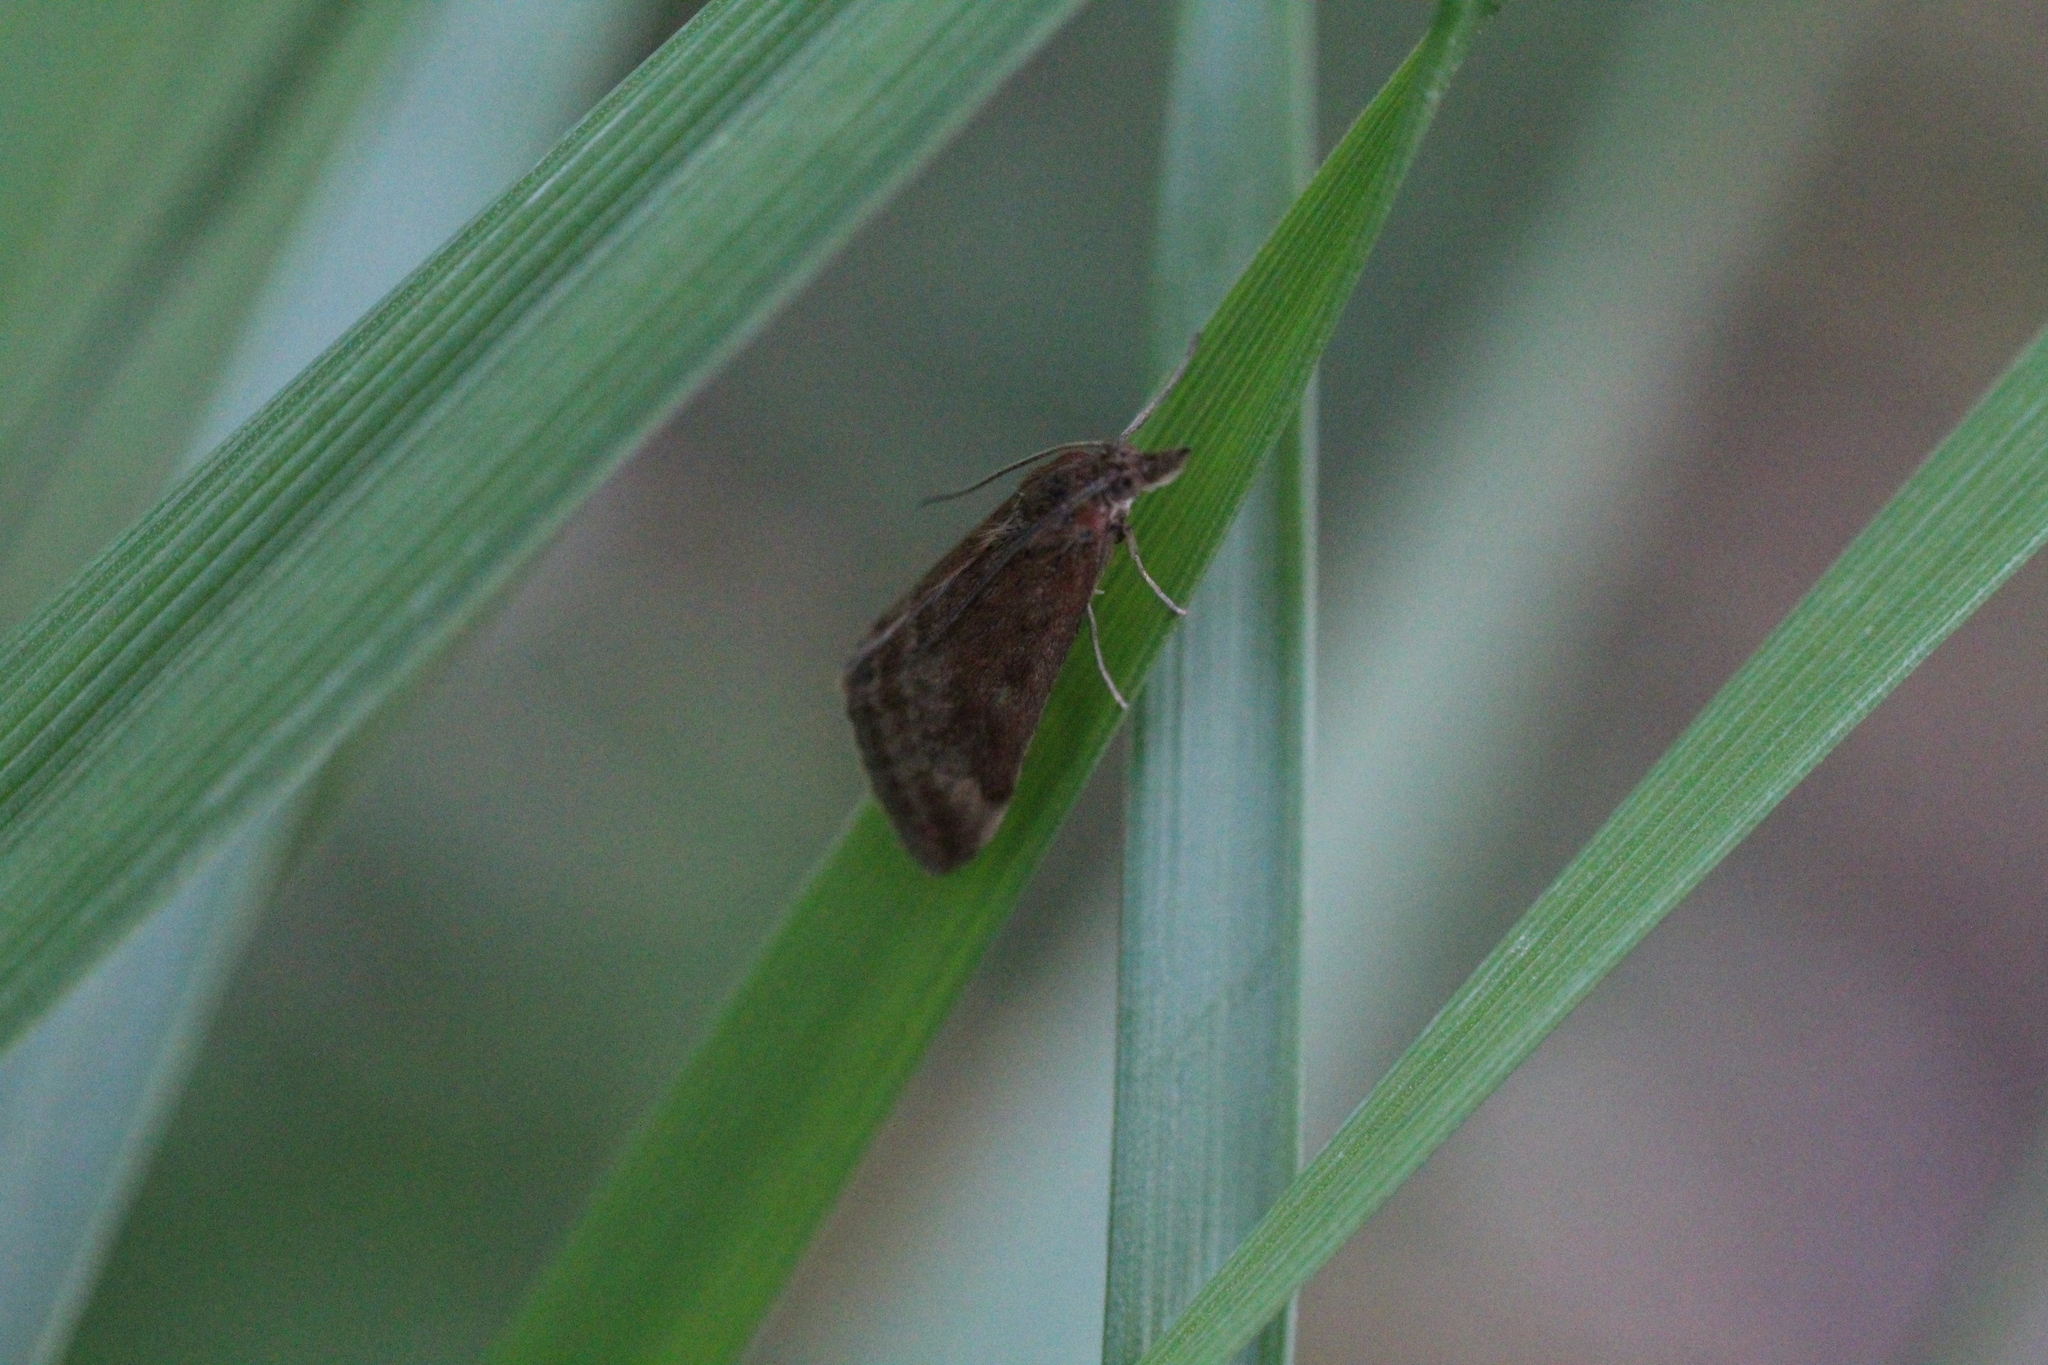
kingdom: Animalia
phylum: Arthropoda
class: Insecta
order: Lepidoptera
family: Crambidae
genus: Pyrausta
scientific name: Pyrausta despicata
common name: Straw-barred pearl
